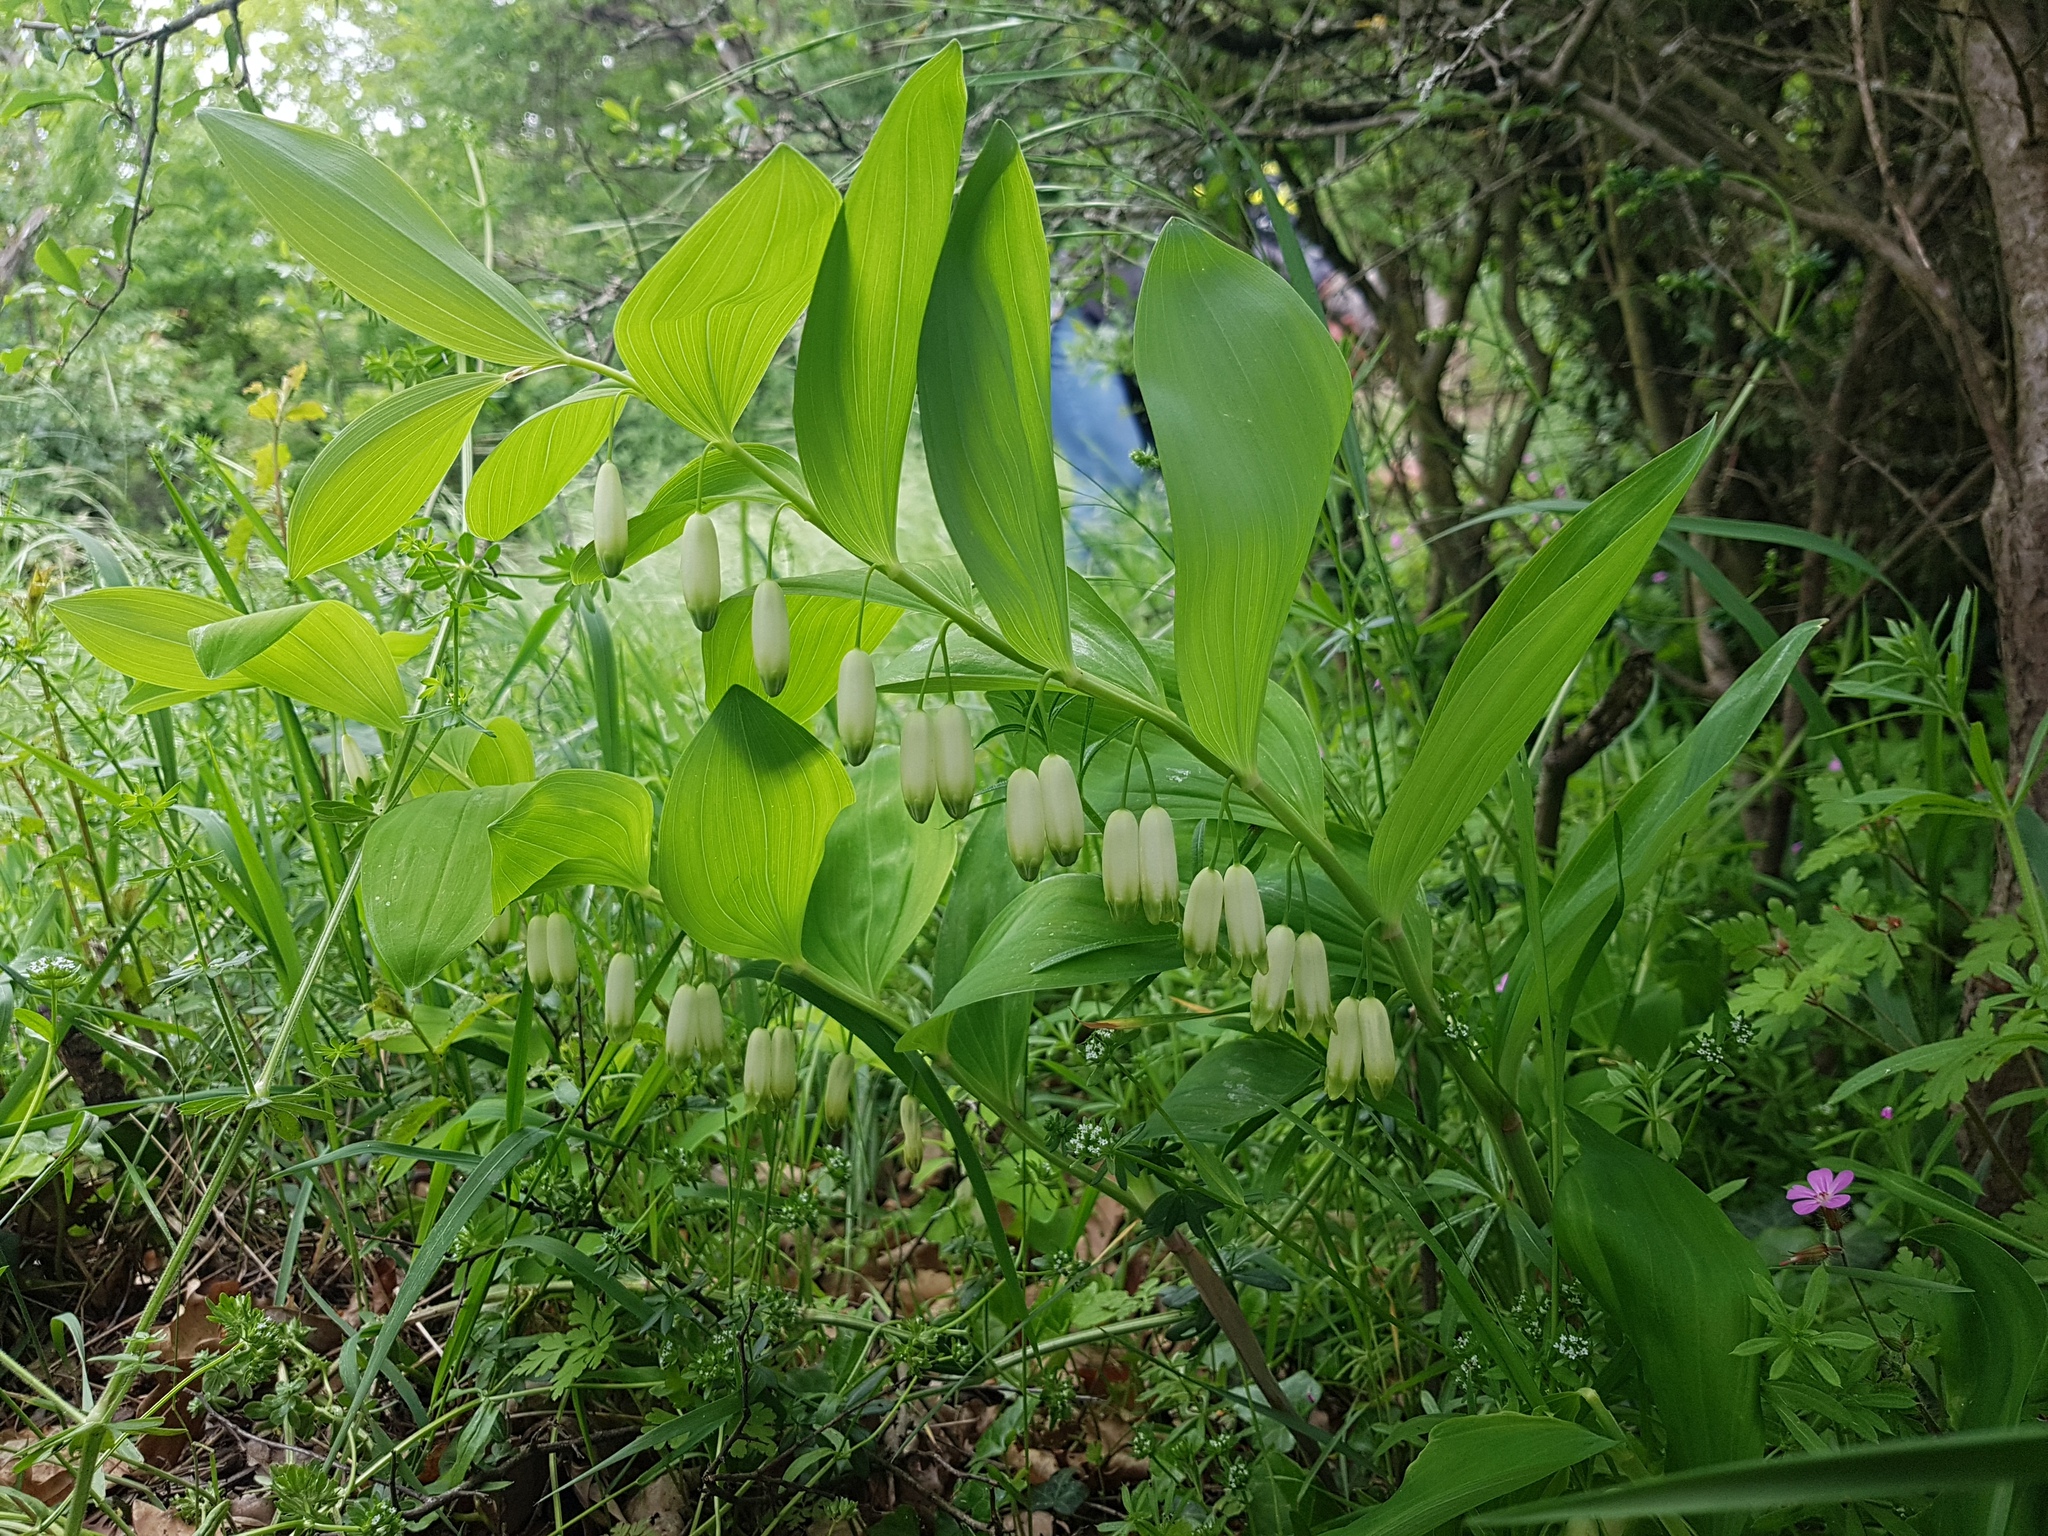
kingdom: Plantae
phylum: Tracheophyta
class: Liliopsida
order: Asparagales
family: Asparagaceae
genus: Polygonatum
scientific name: Polygonatum odoratum
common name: Angular solomon's-seal
